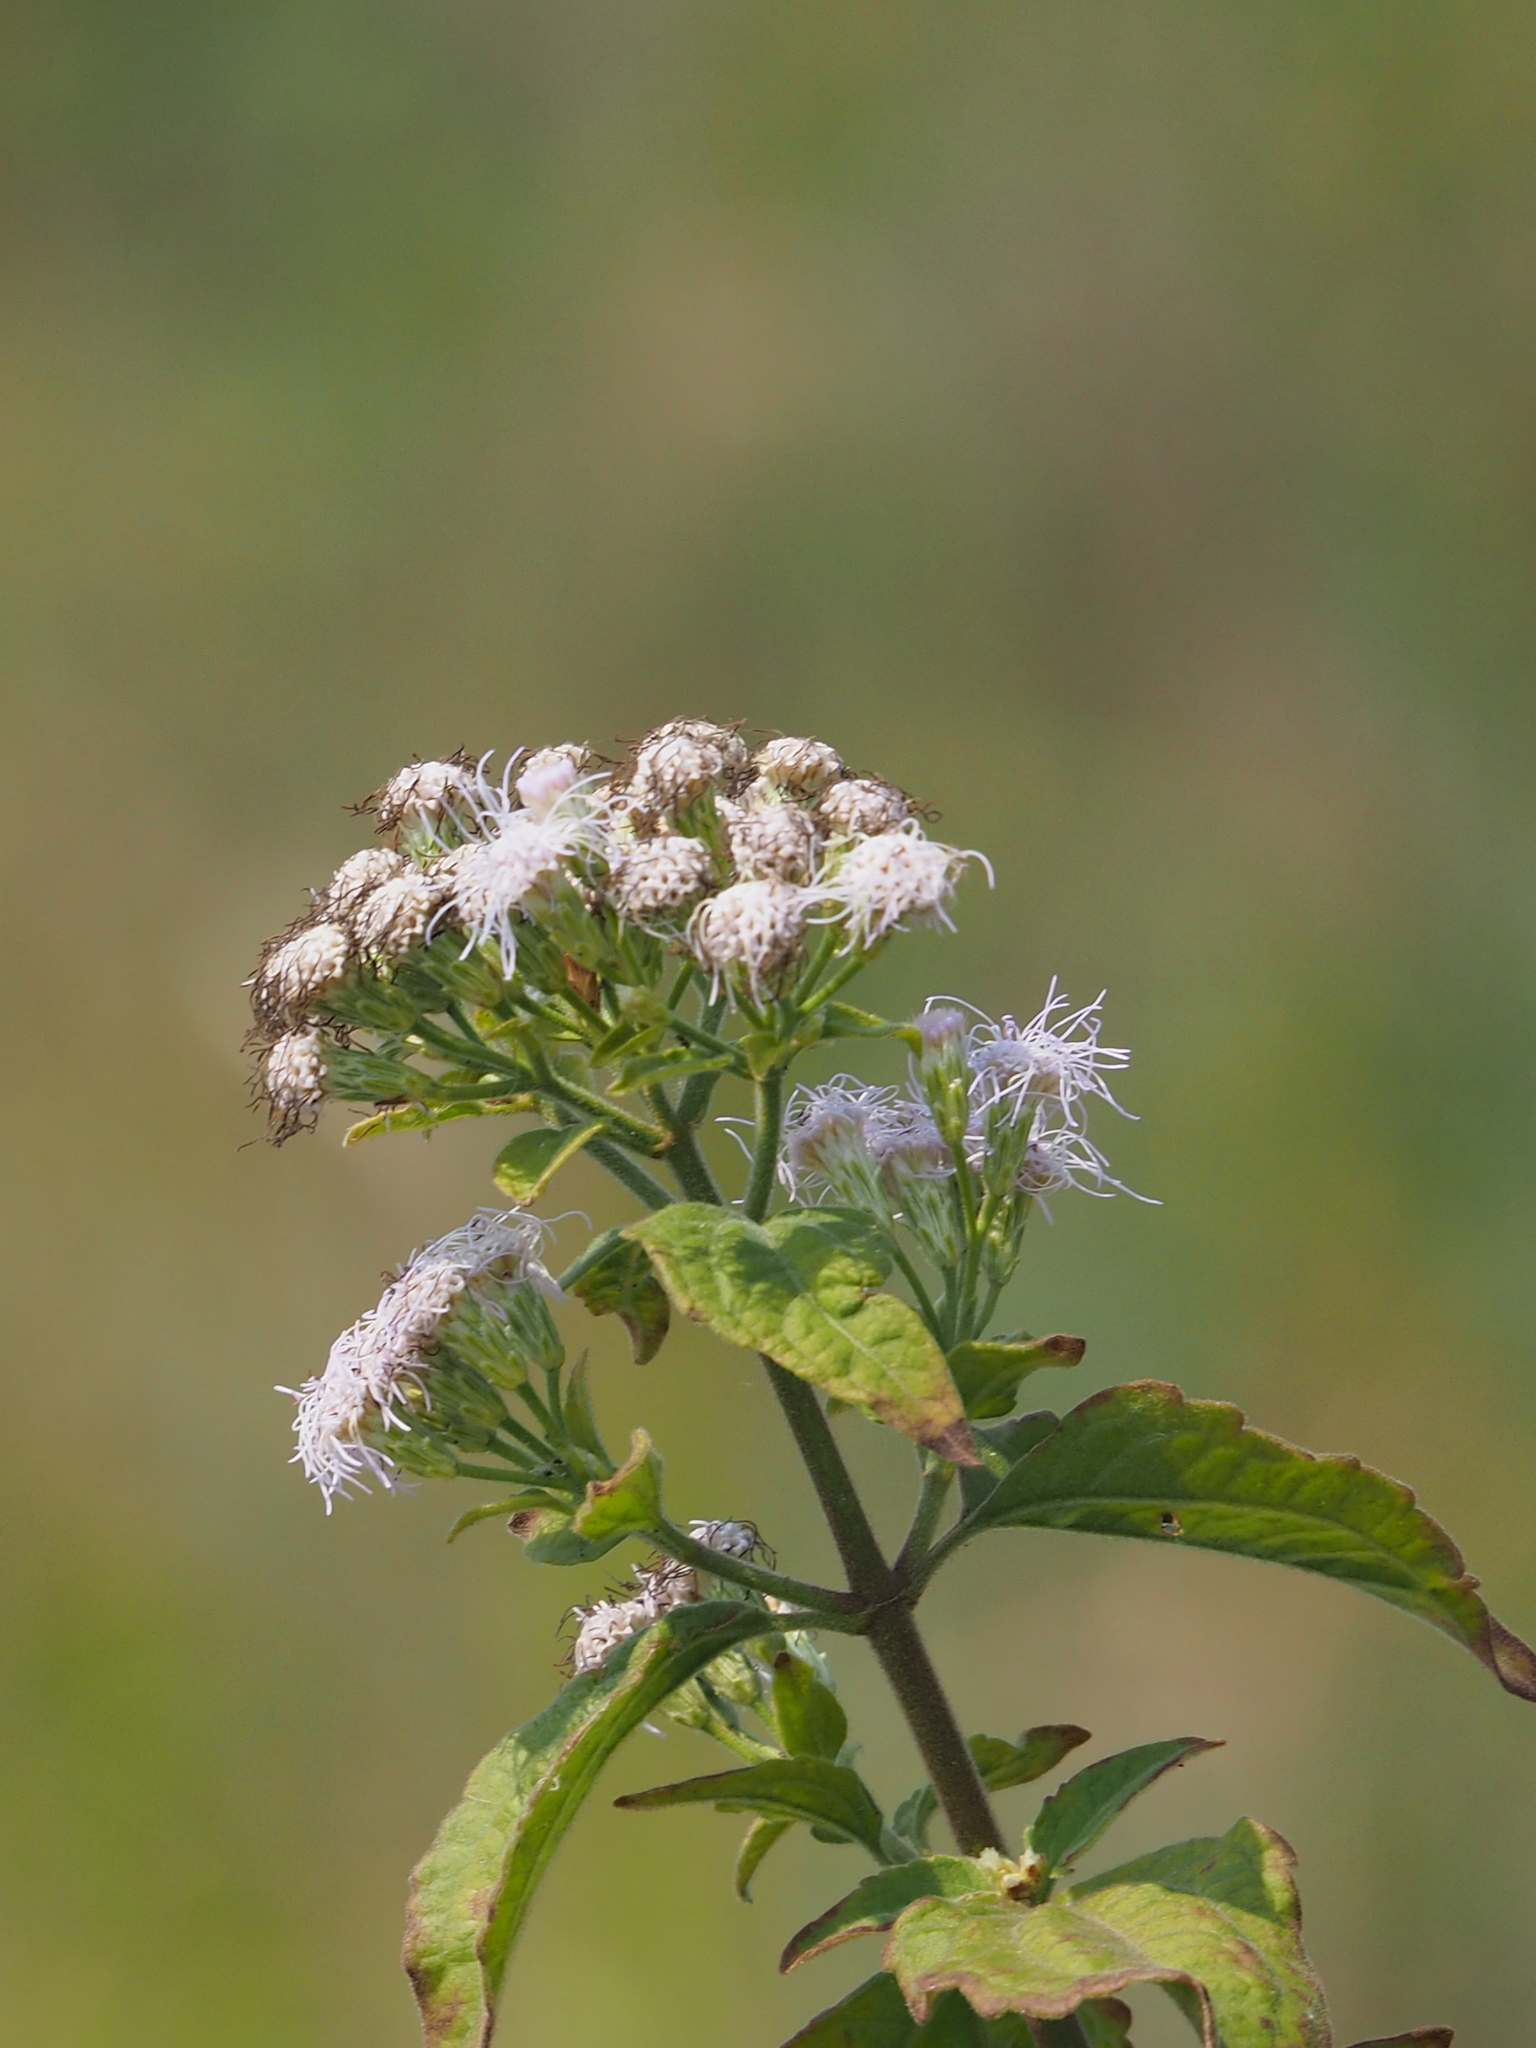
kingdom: Plantae
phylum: Tracheophyta
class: Magnoliopsida
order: Asterales
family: Asteraceae
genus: Chromolaena
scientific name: Chromolaena odorata
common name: Siamweed
